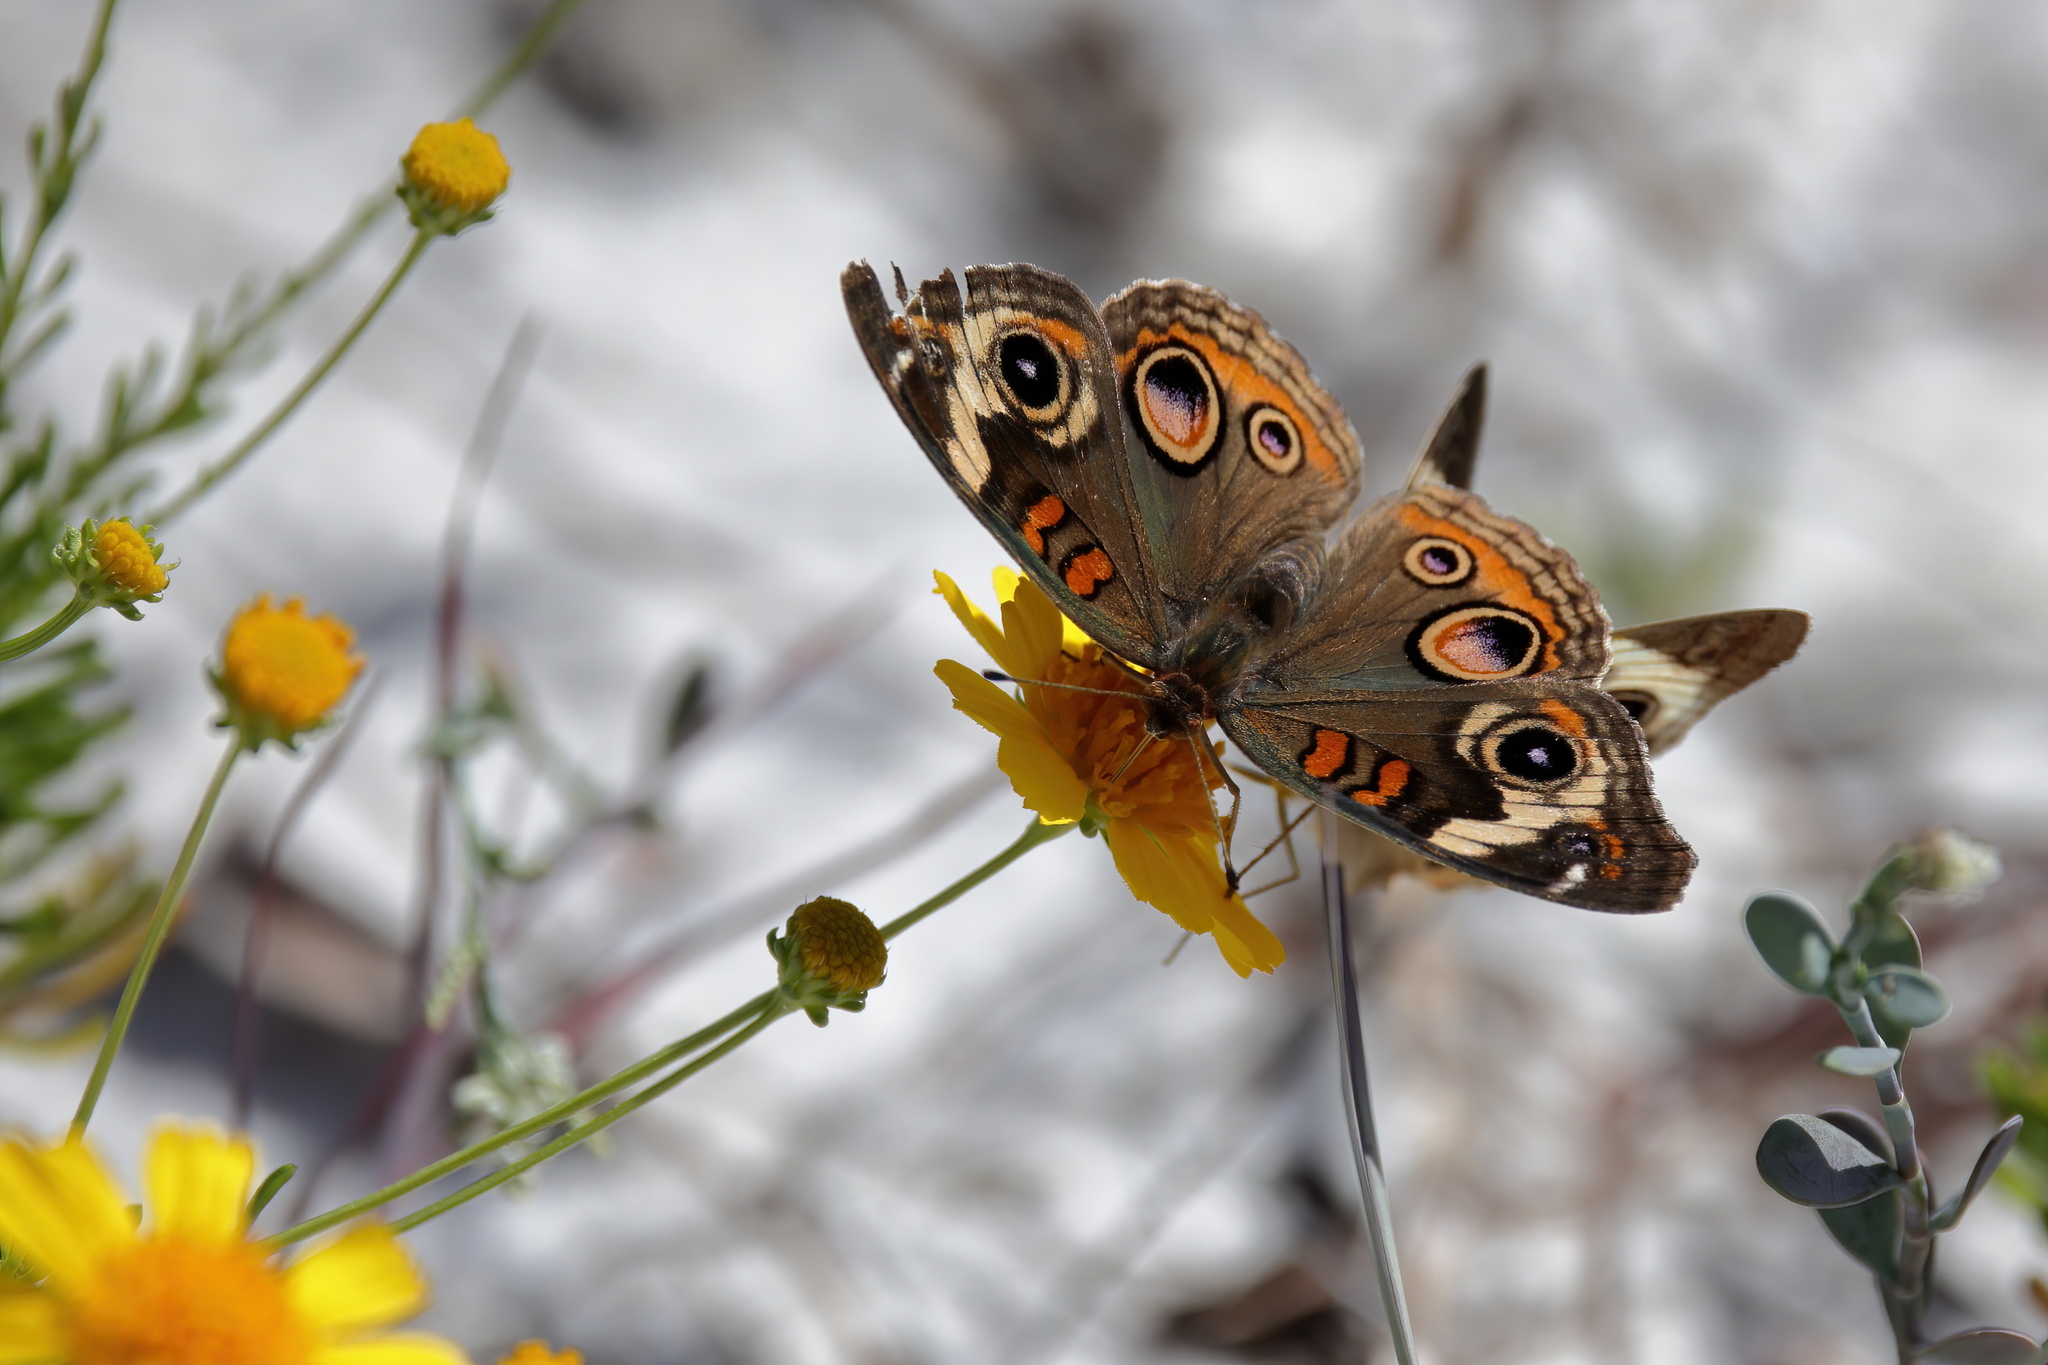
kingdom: Animalia
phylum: Arthropoda
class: Insecta
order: Lepidoptera
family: Nymphalidae
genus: Junonia
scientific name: Junonia coenia
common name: Common buckeye
